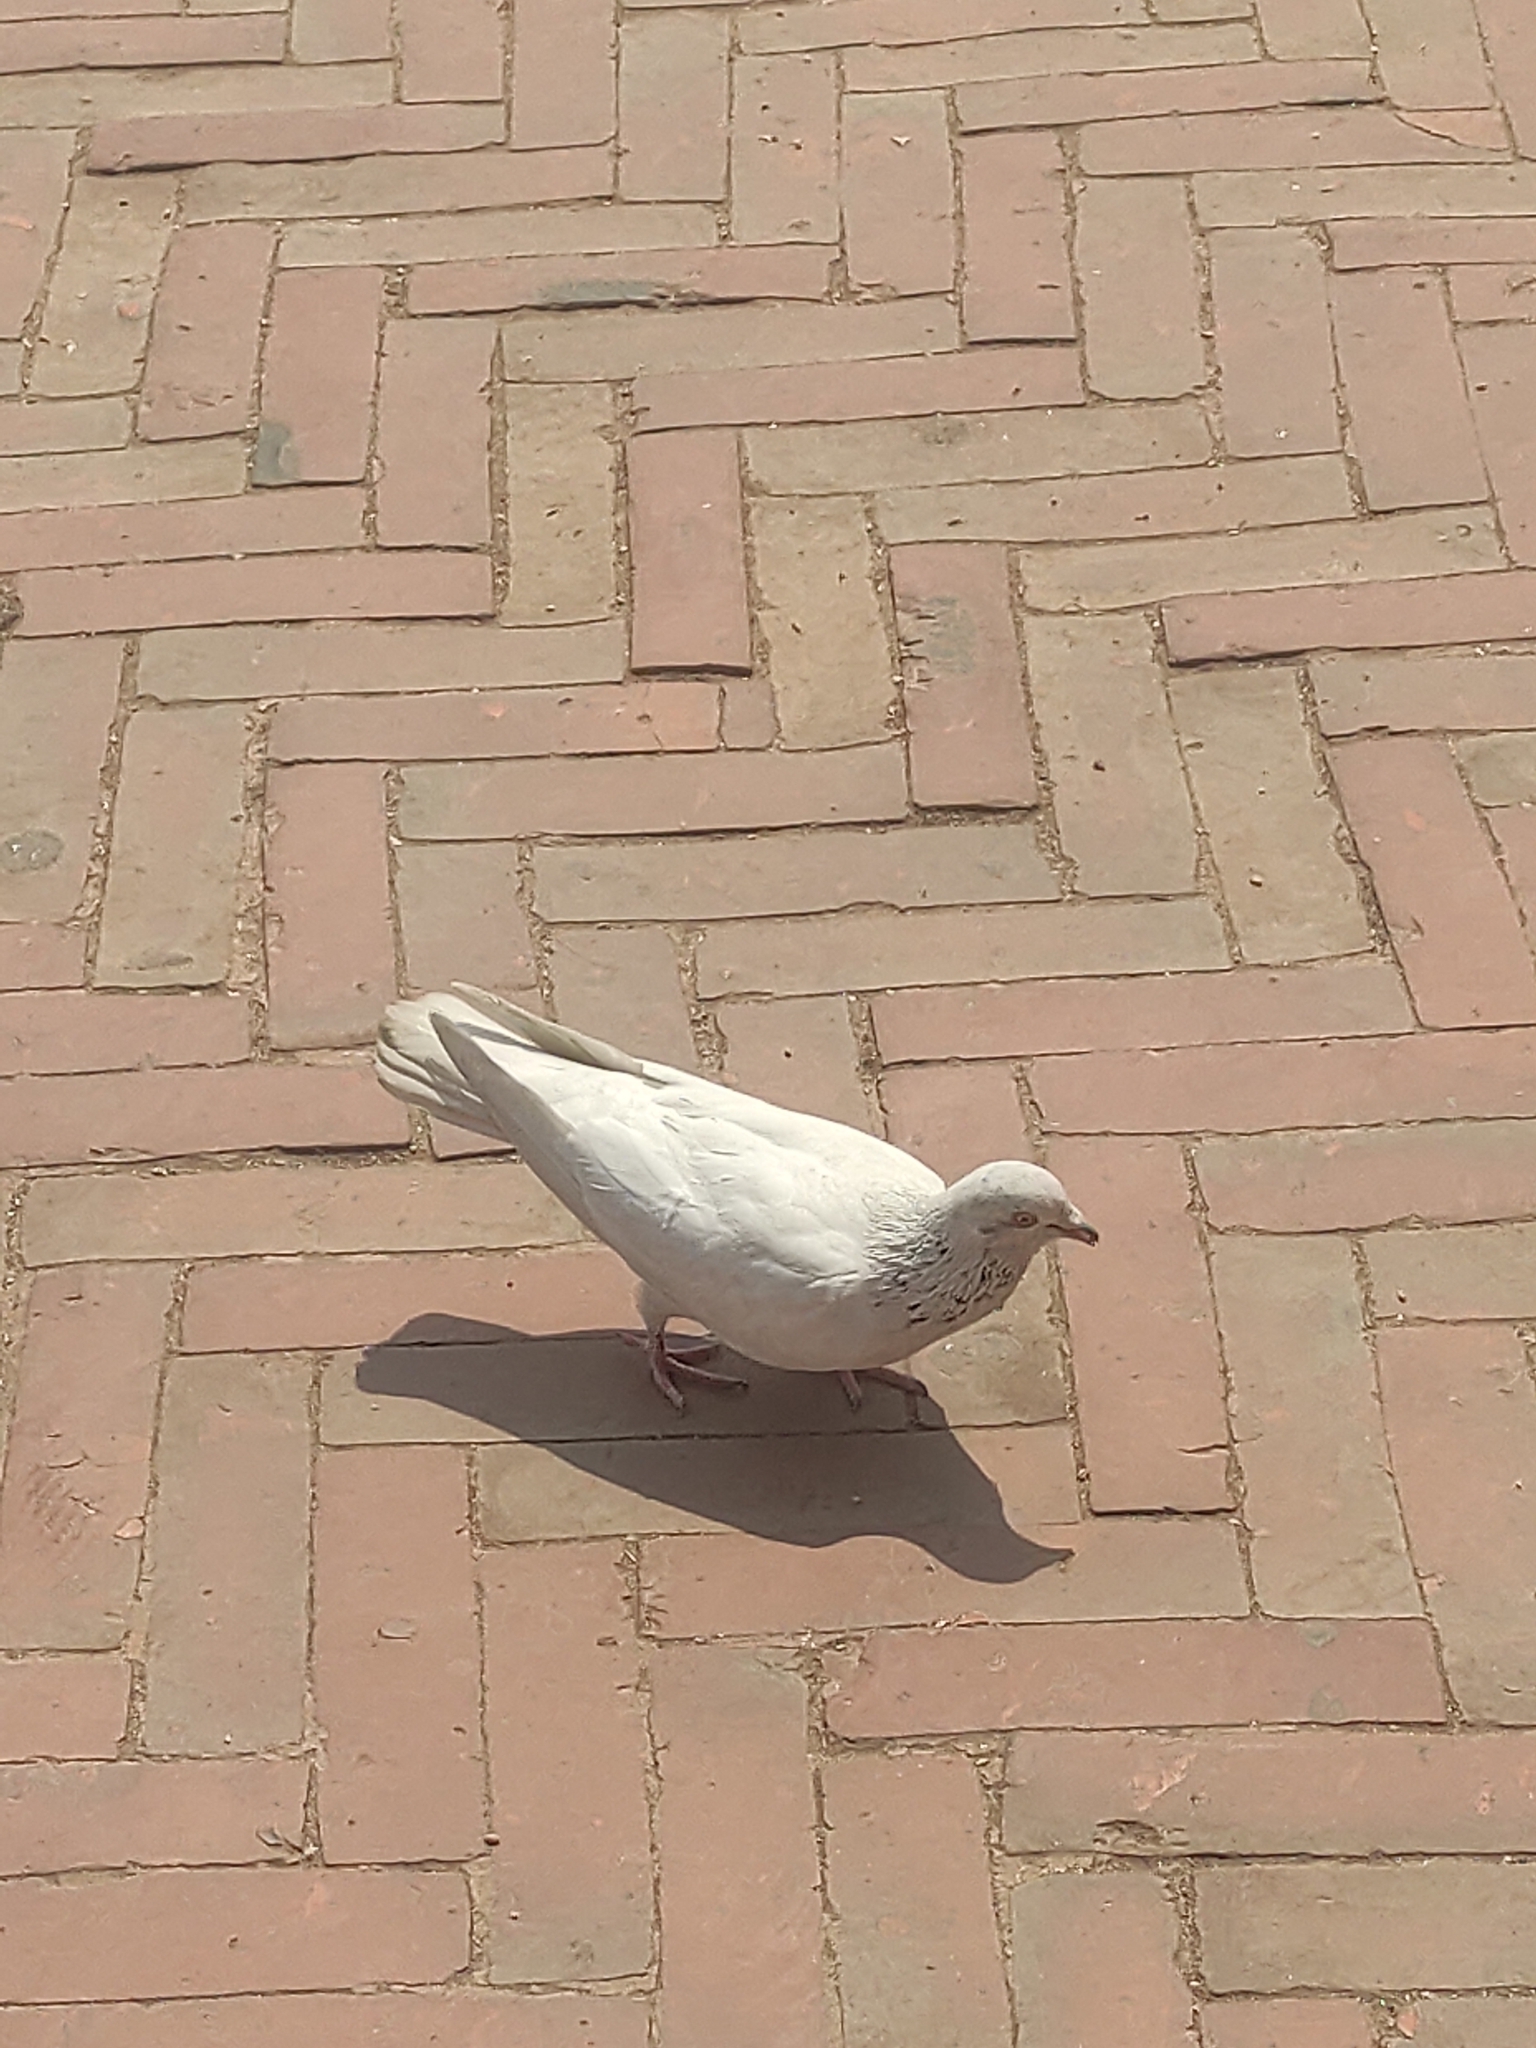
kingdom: Animalia
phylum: Chordata
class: Aves
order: Columbiformes
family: Columbidae
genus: Columba
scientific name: Columba livia
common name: Rock pigeon
